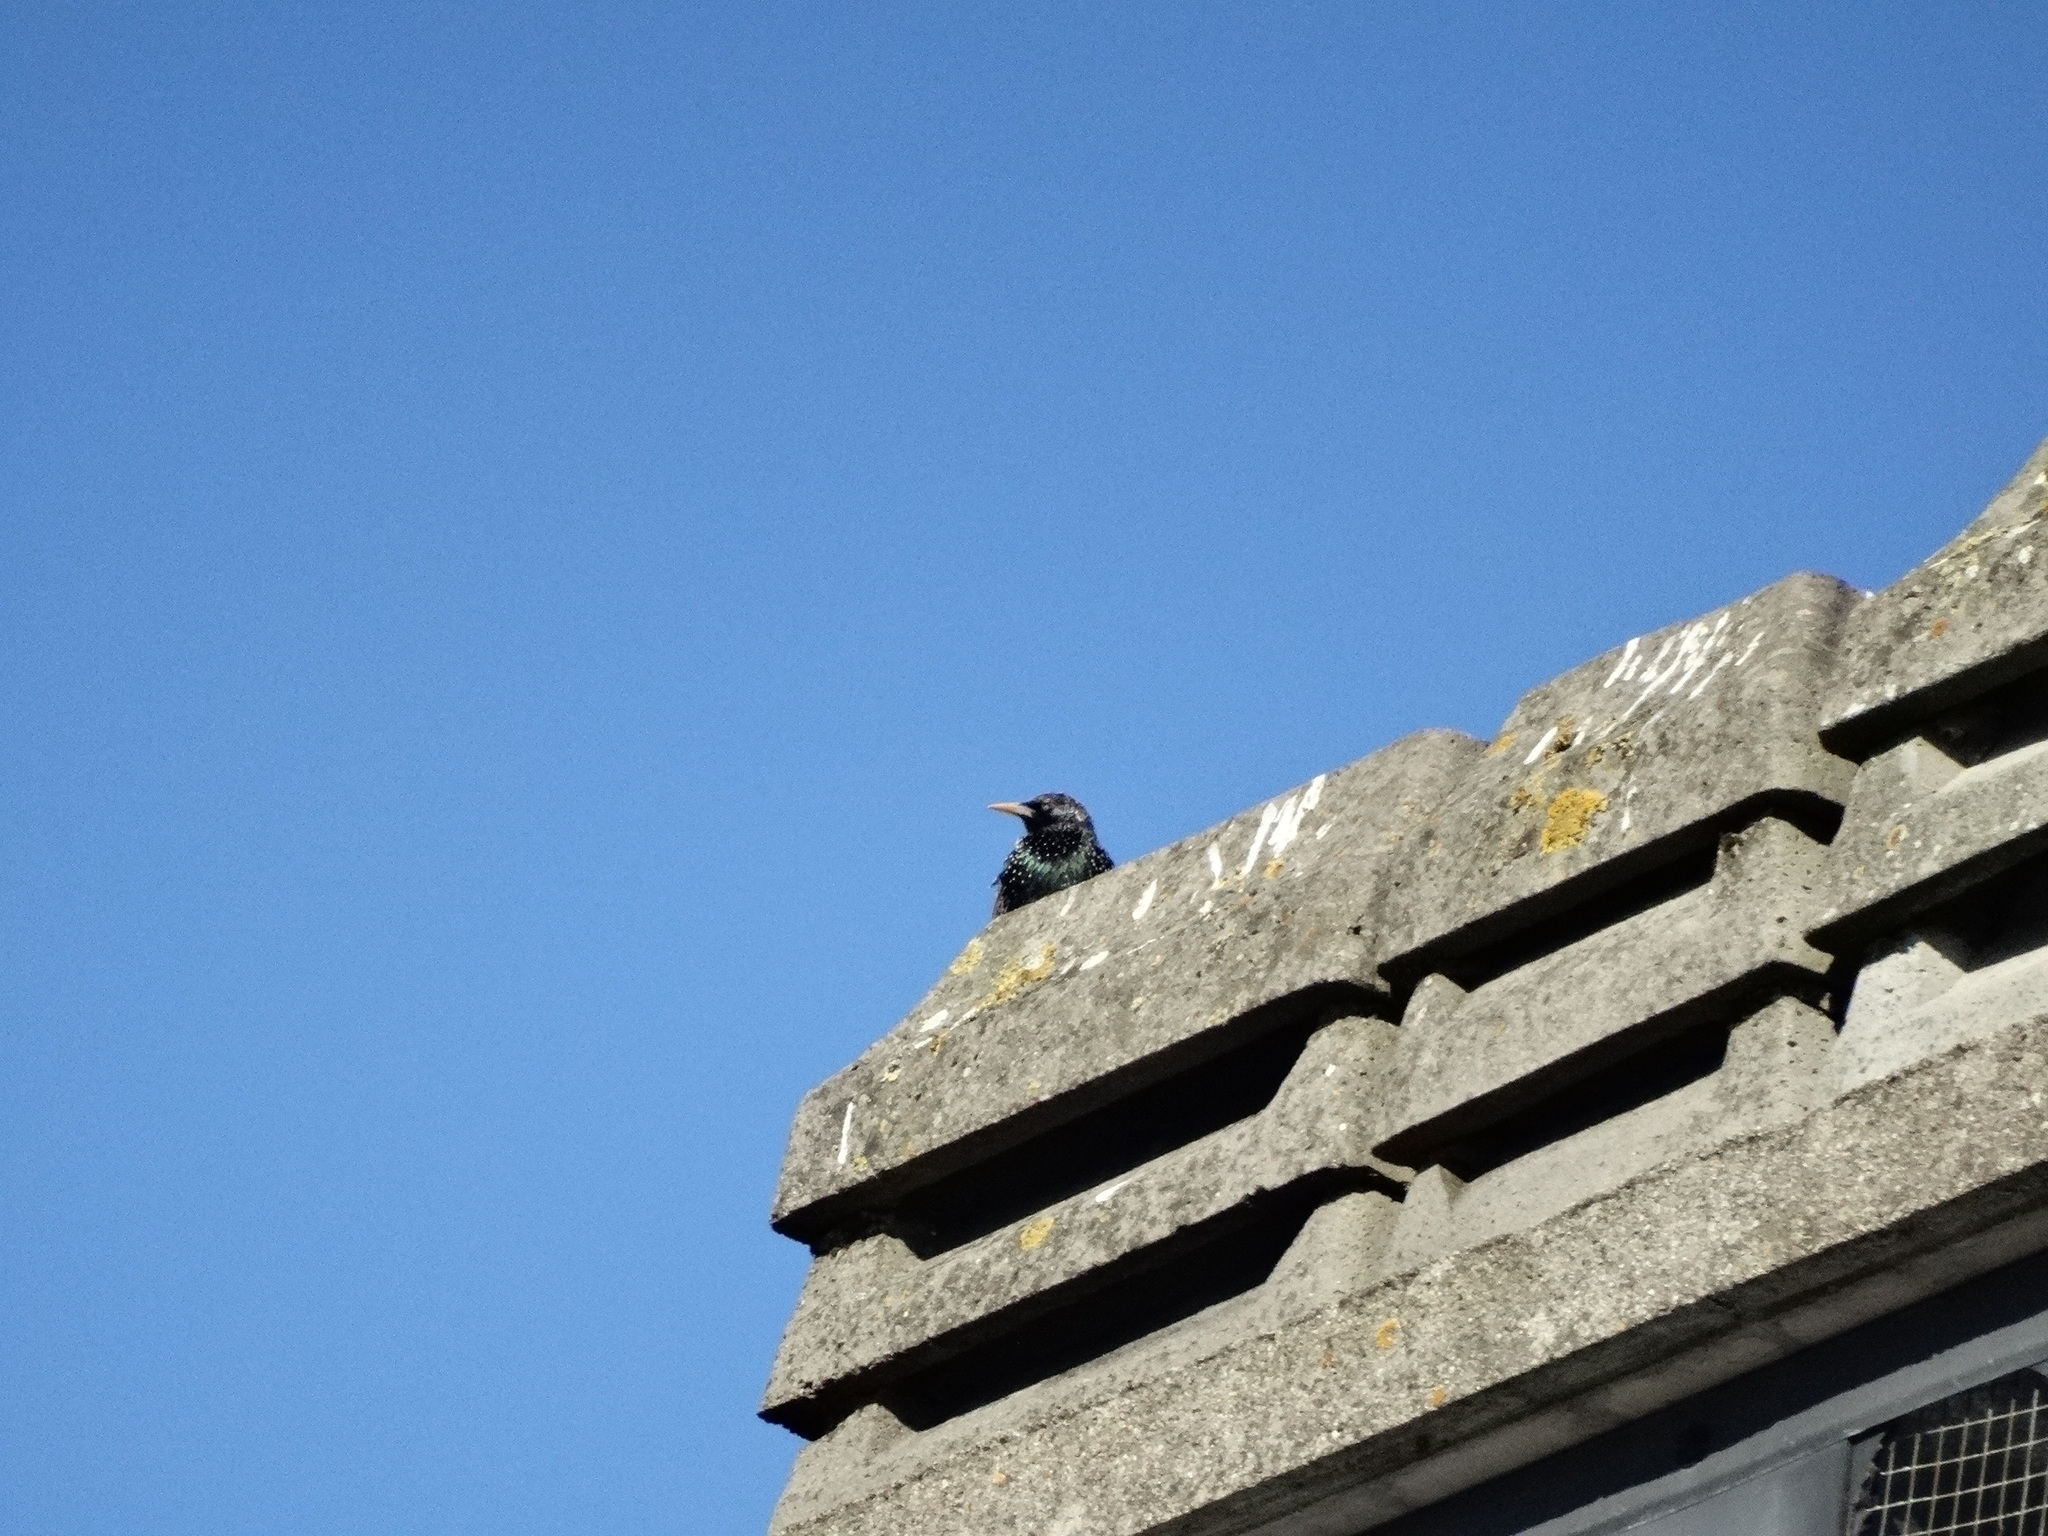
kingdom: Animalia
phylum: Chordata
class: Aves
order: Passeriformes
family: Sturnidae
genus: Sturnus
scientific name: Sturnus vulgaris
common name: Common starling
